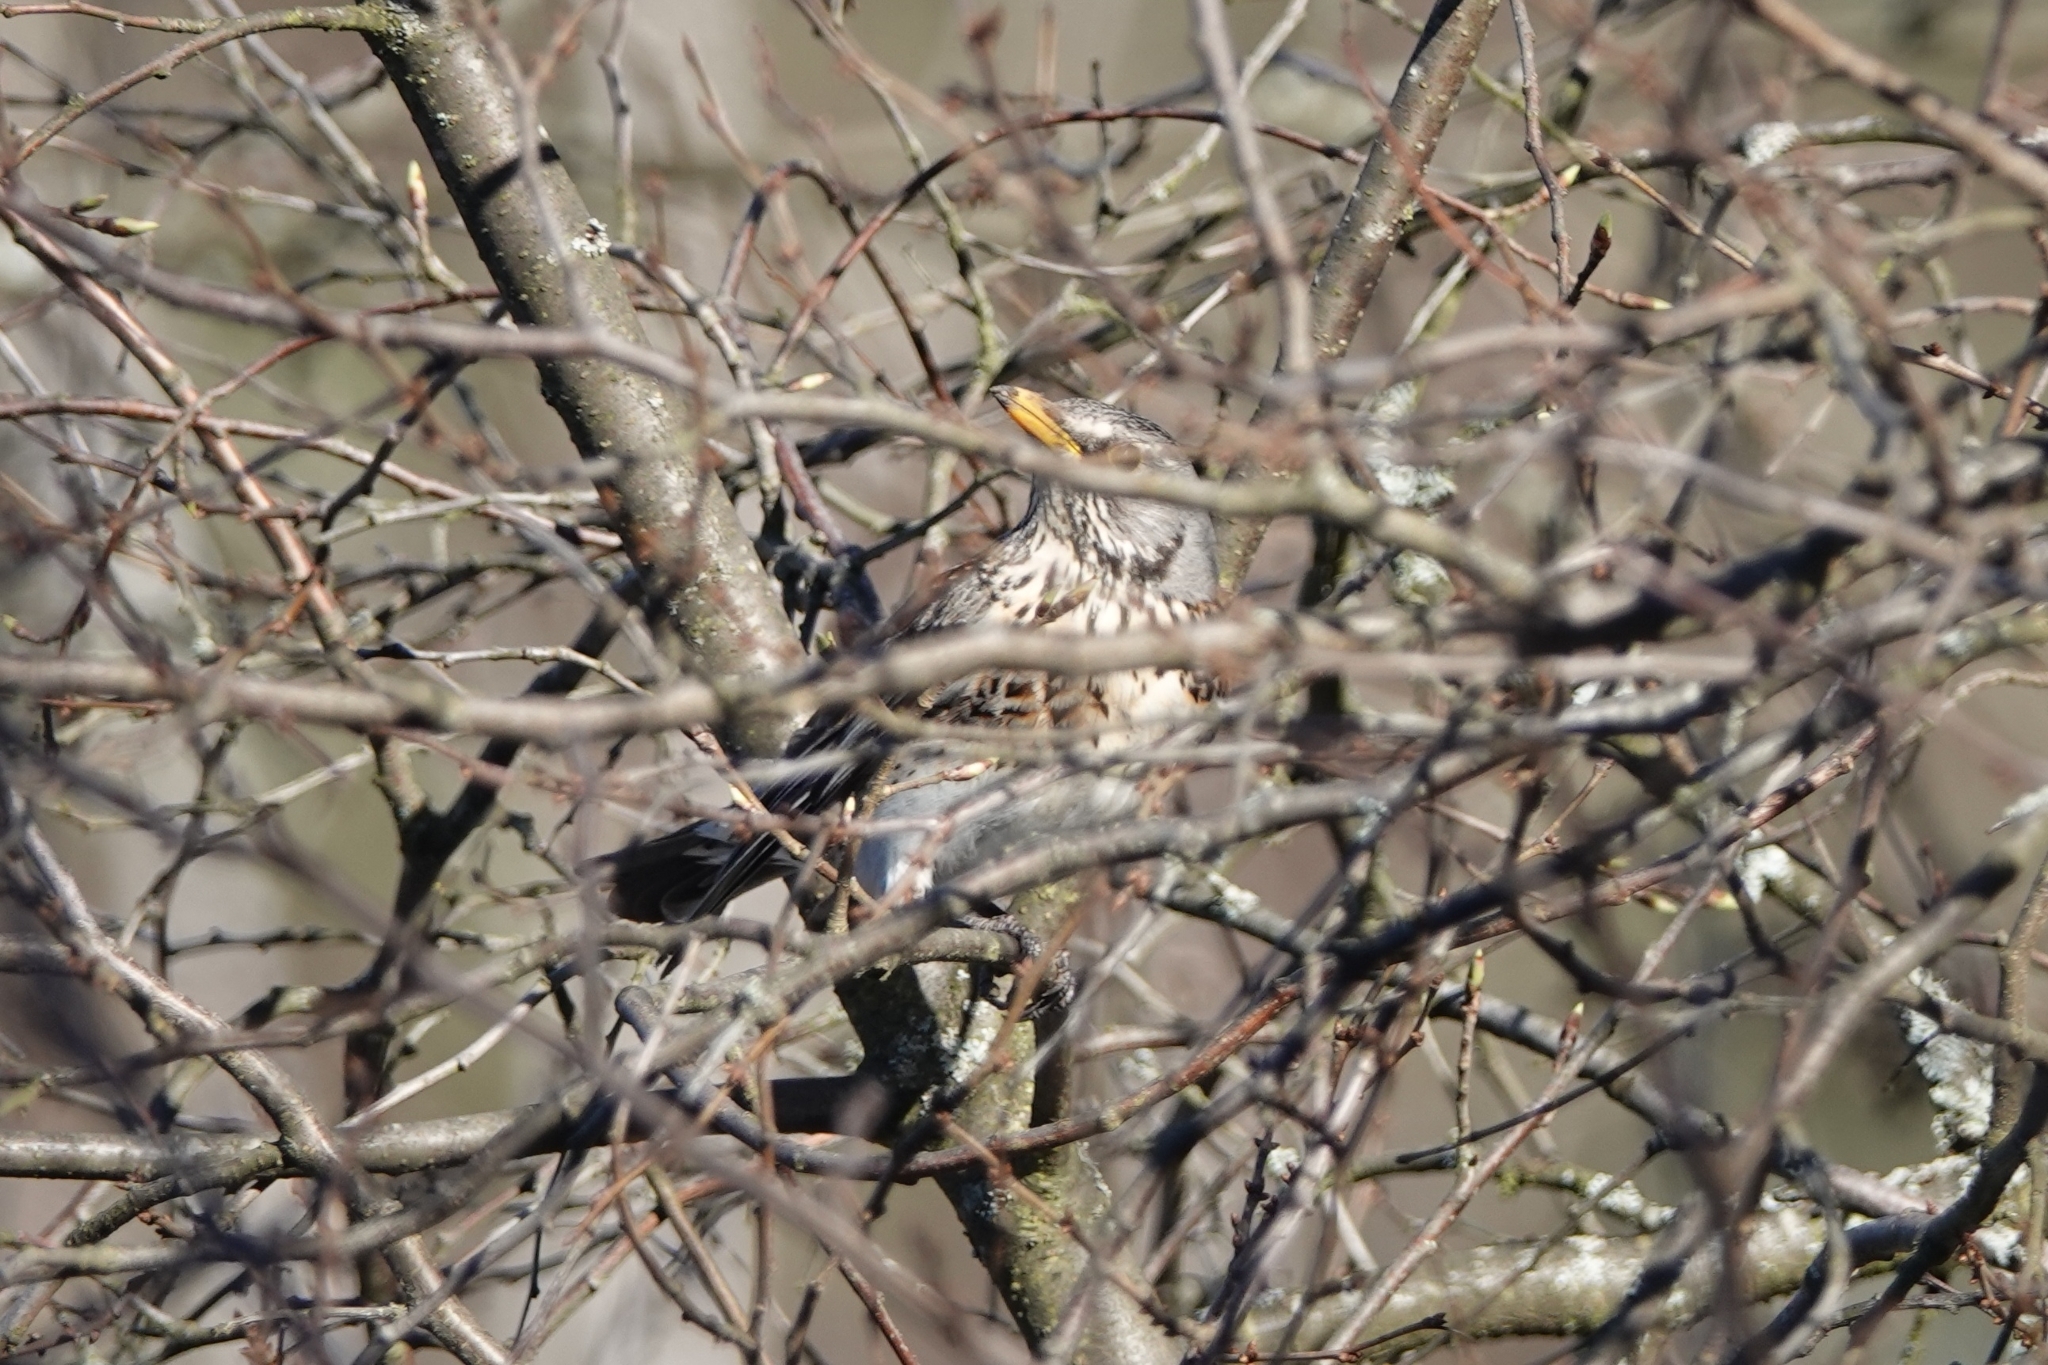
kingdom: Animalia
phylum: Chordata
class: Aves
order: Passeriformes
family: Turdidae
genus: Turdus
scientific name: Turdus pilaris
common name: Fieldfare
